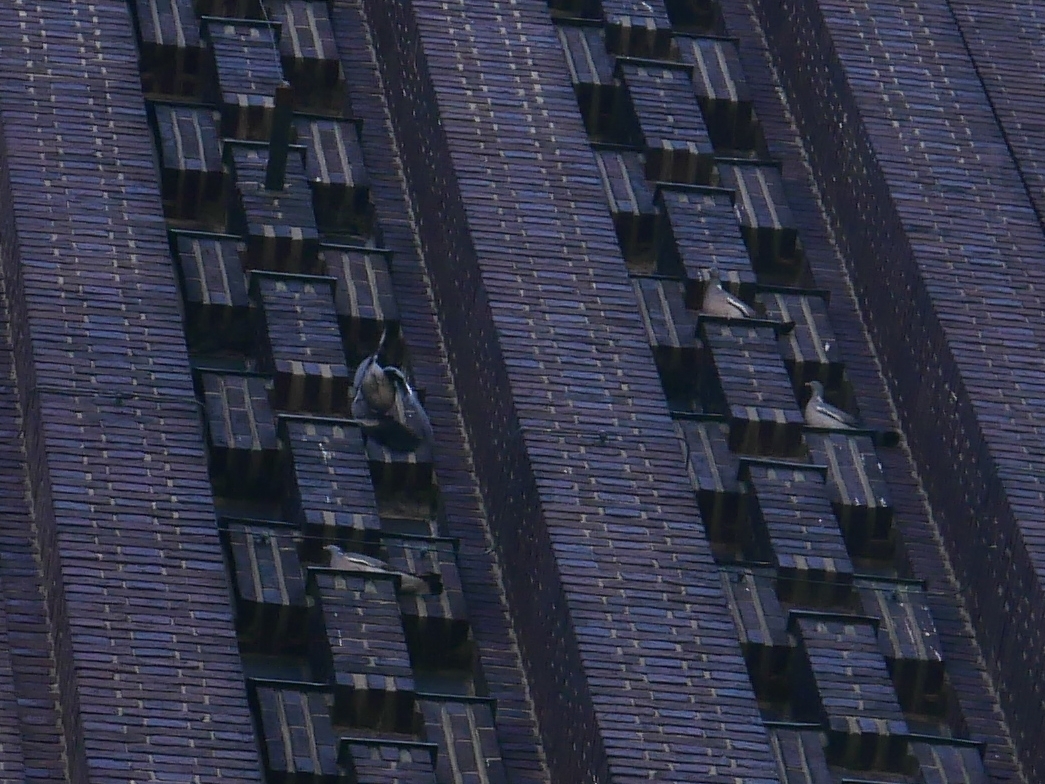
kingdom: Animalia
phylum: Chordata
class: Aves
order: Columbiformes
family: Columbidae
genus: Columba
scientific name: Columba palumbus
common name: Common wood pigeon
